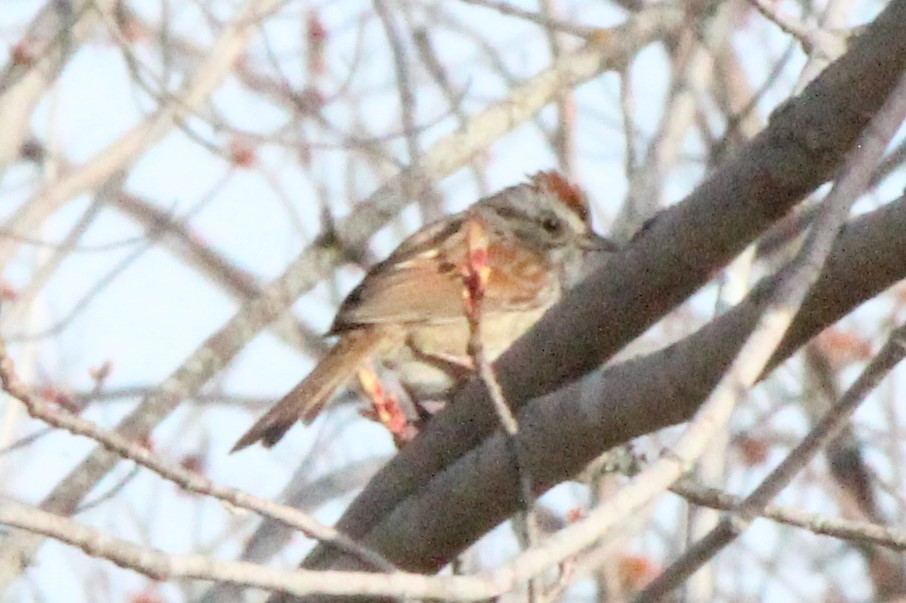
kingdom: Animalia
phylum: Chordata
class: Aves
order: Passeriformes
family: Passerellidae
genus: Melospiza
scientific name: Melospiza georgiana
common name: Swamp sparrow
